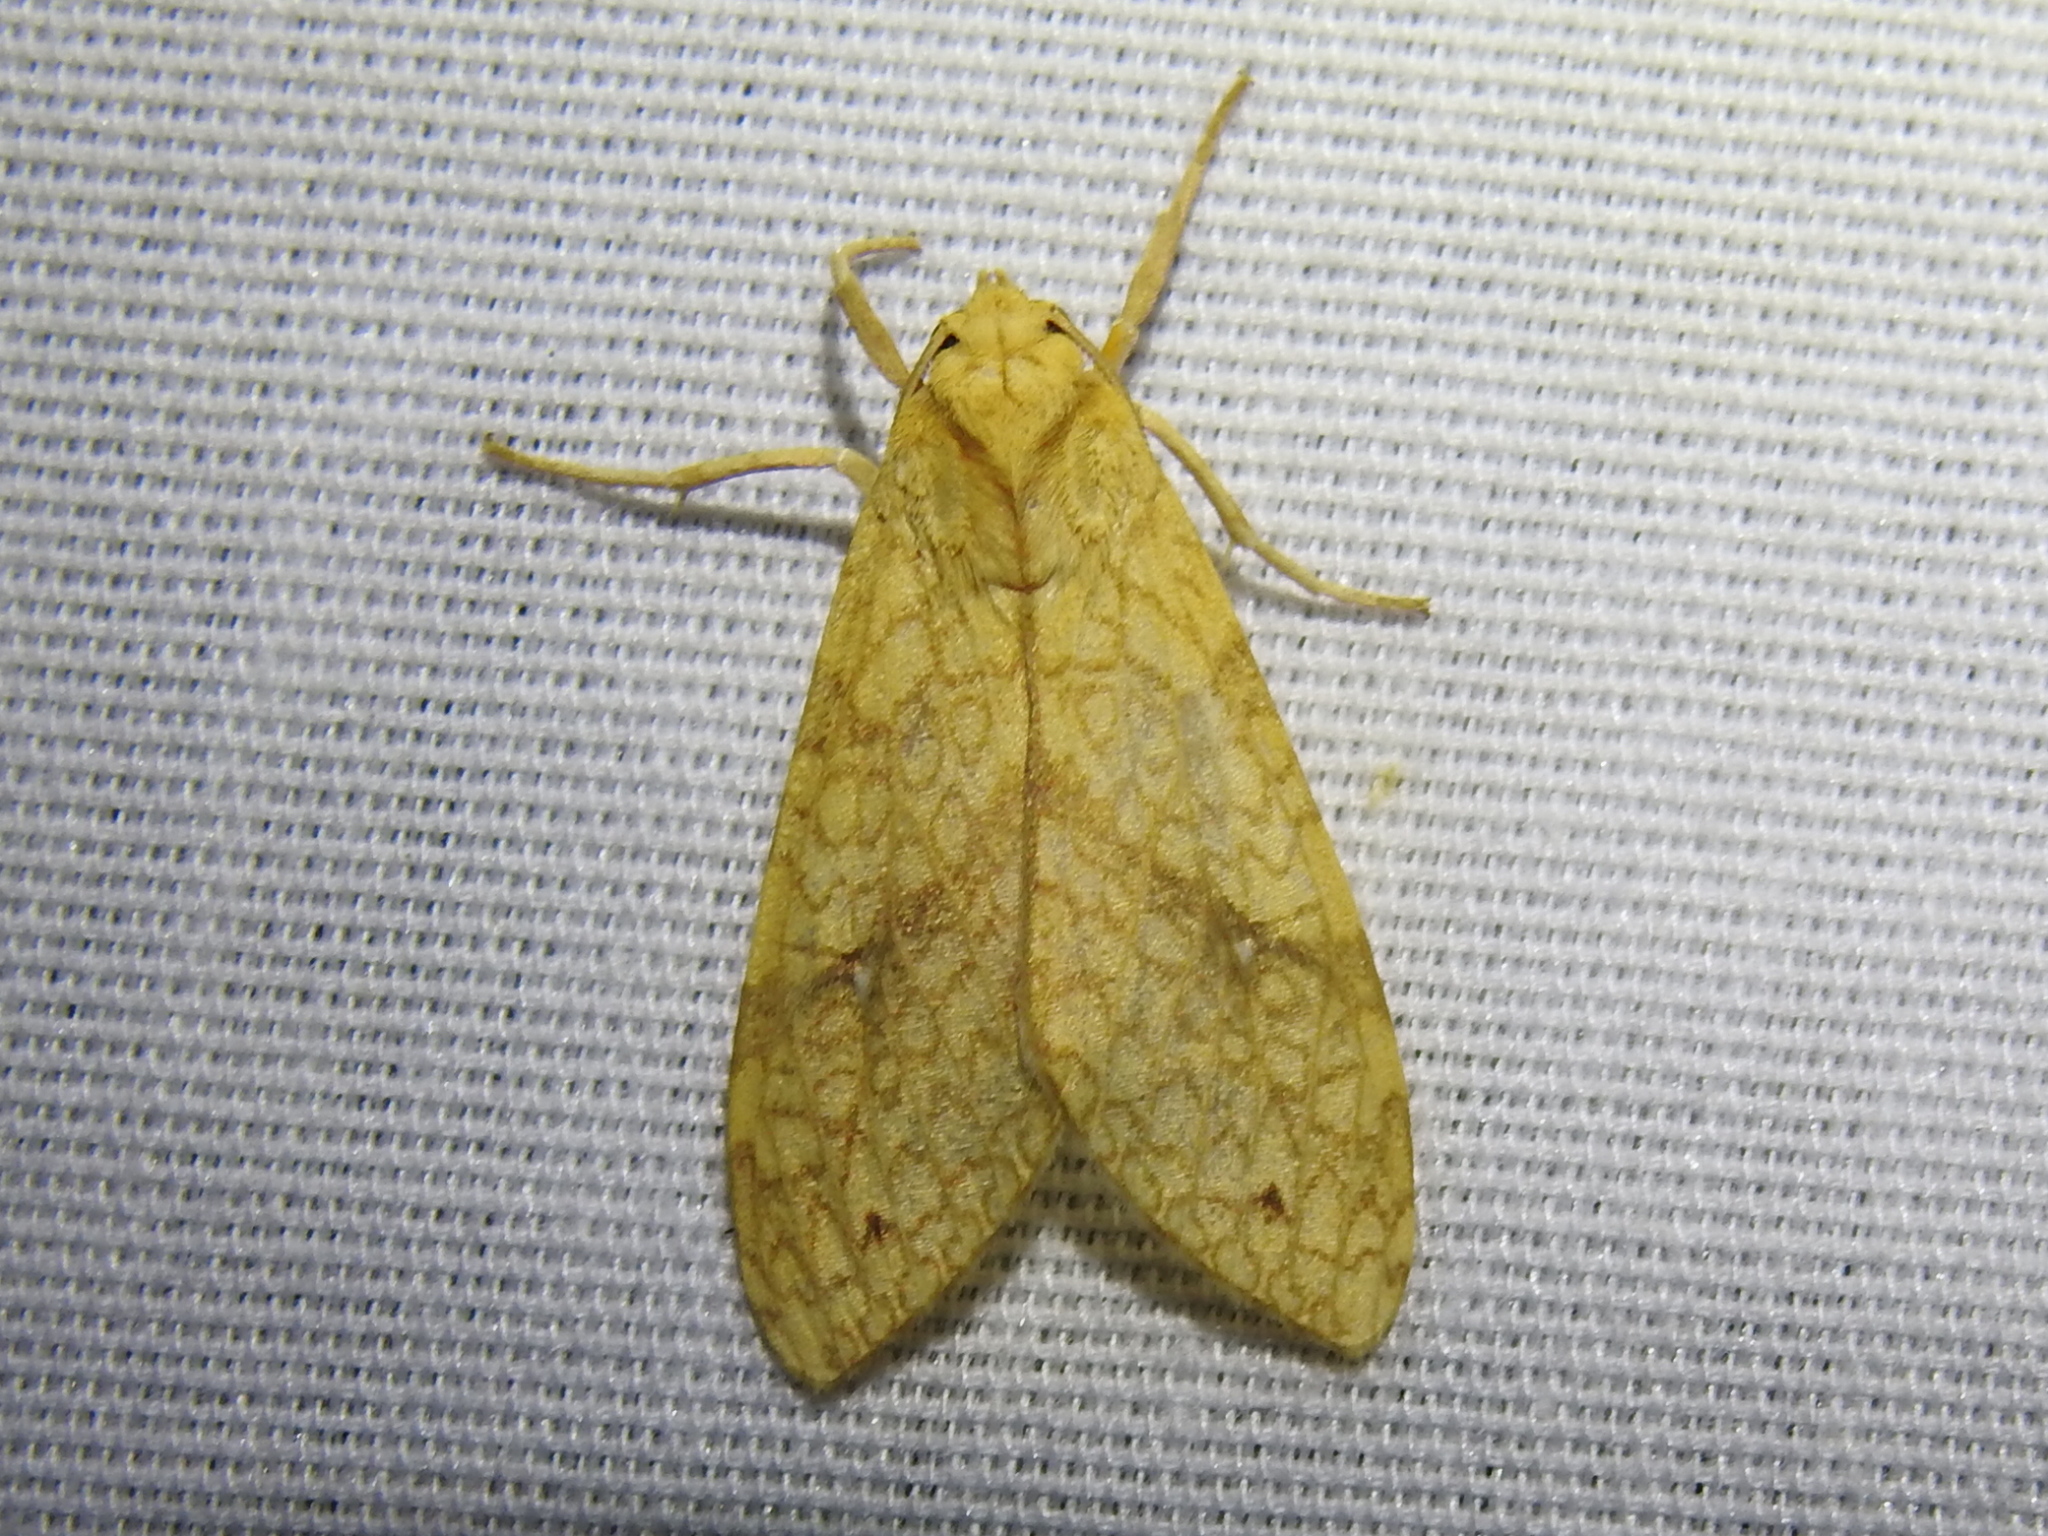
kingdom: Animalia
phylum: Arthropoda
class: Insecta
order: Lepidoptera
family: Erebidae
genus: Lophocampa
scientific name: Lophocampa annulosa
